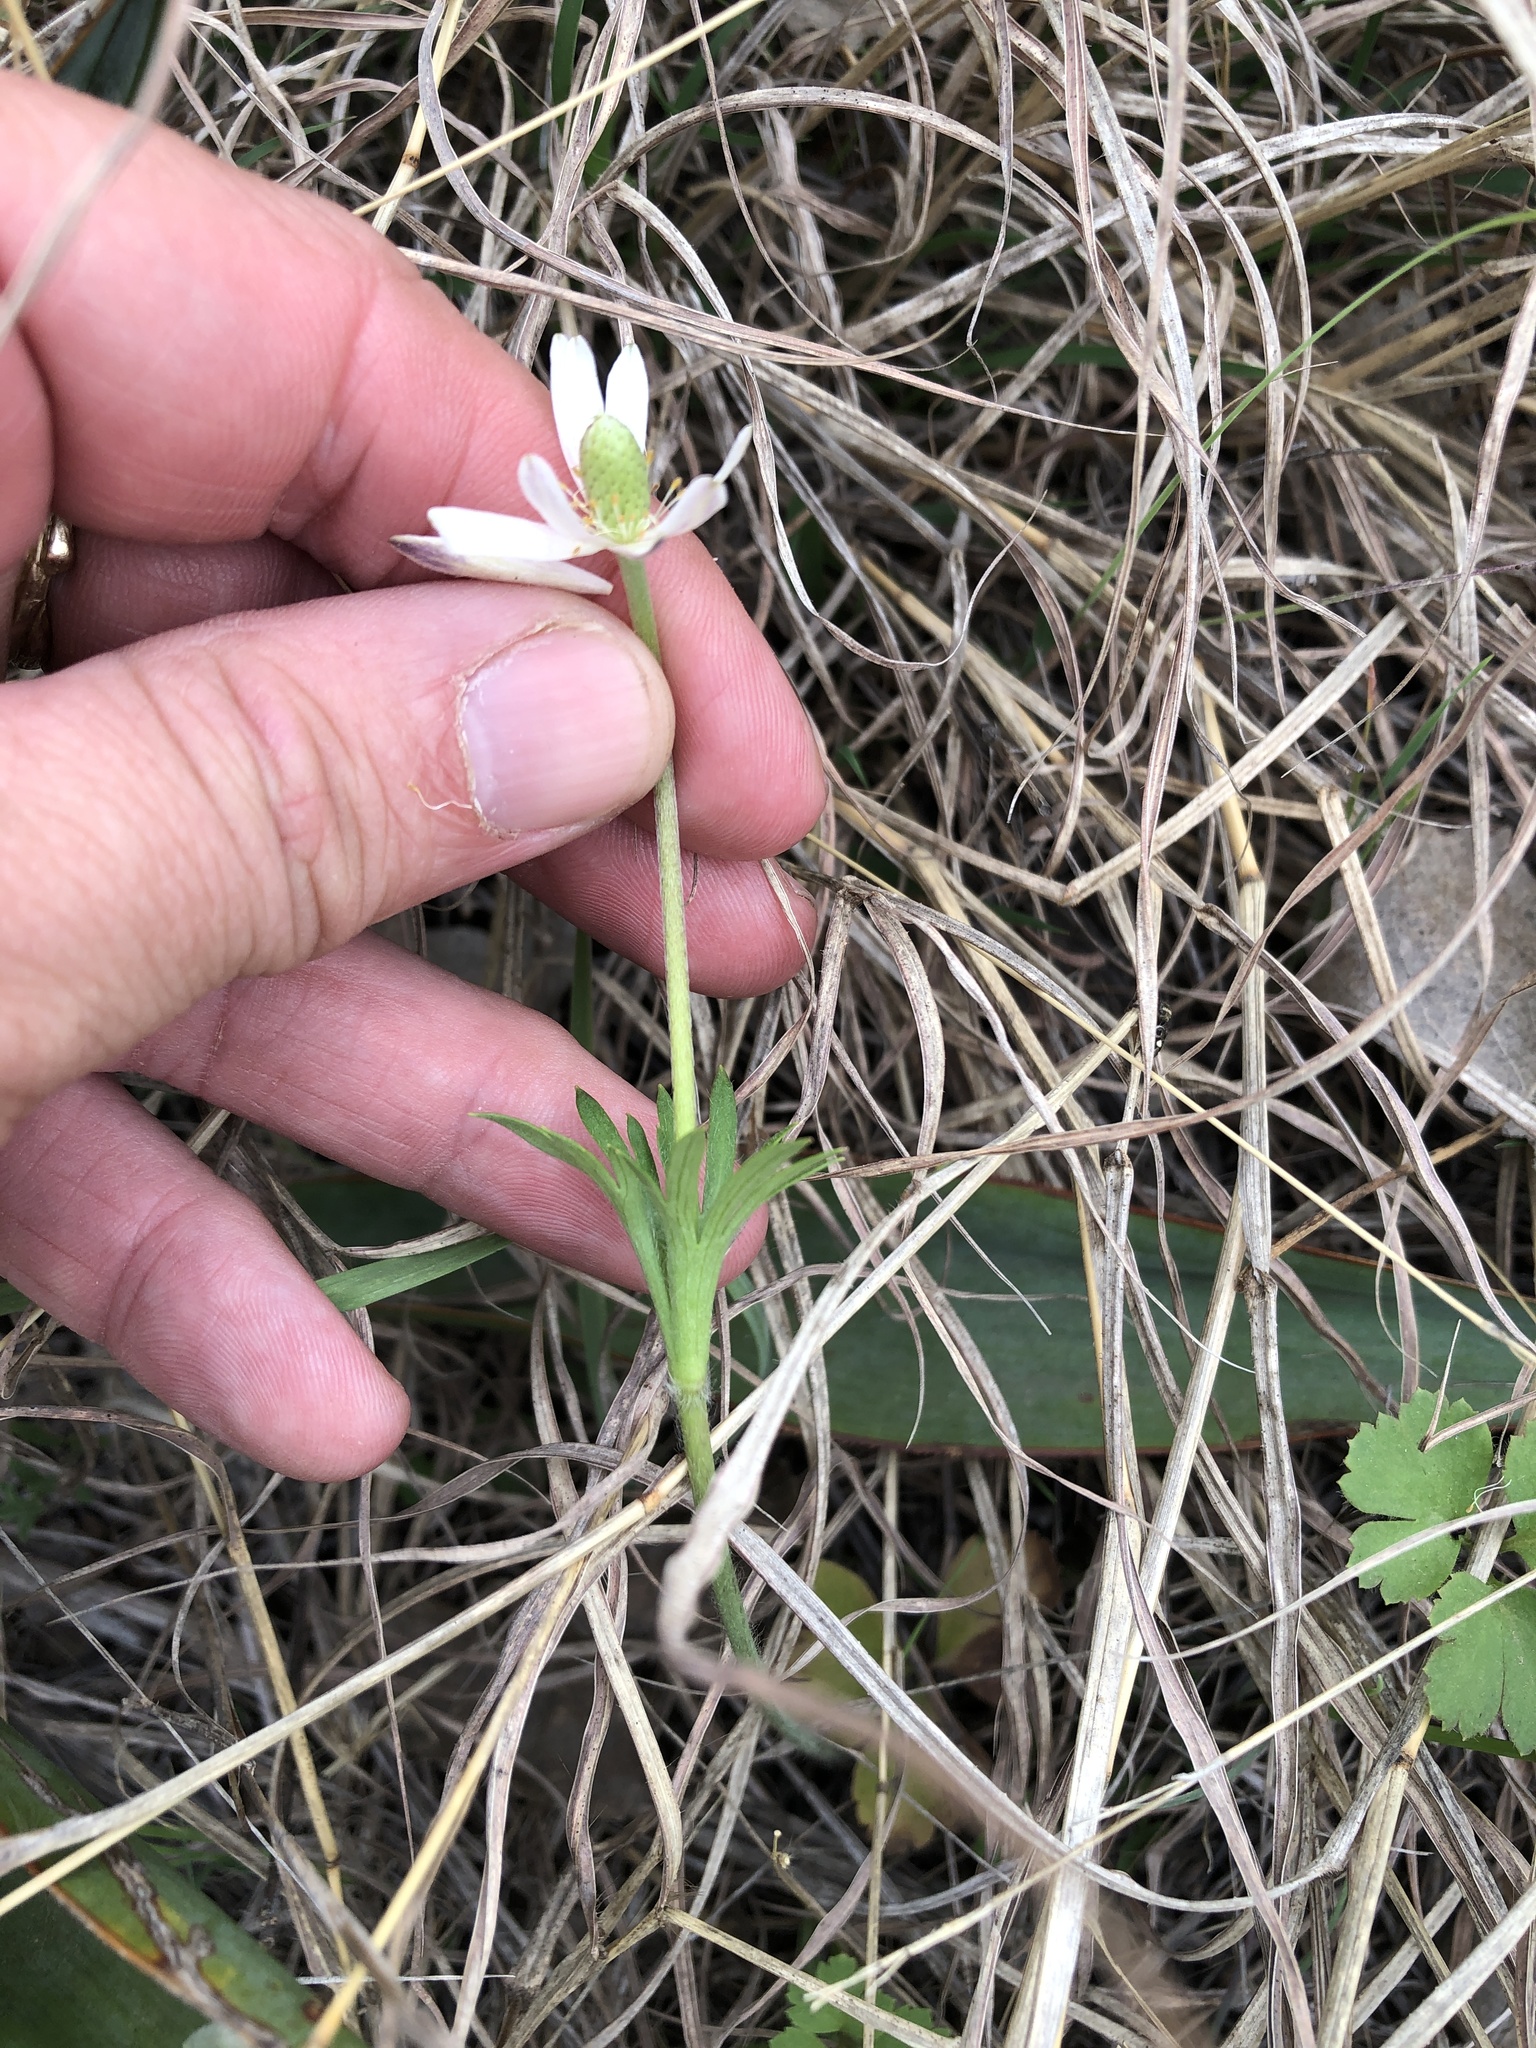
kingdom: Plantae
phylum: Tracheophyta
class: Magnoliopsida
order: Ranunculales
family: Ranunculaceae
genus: Anemone
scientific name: Anemone berlandieri
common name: Ten-petal anemone
